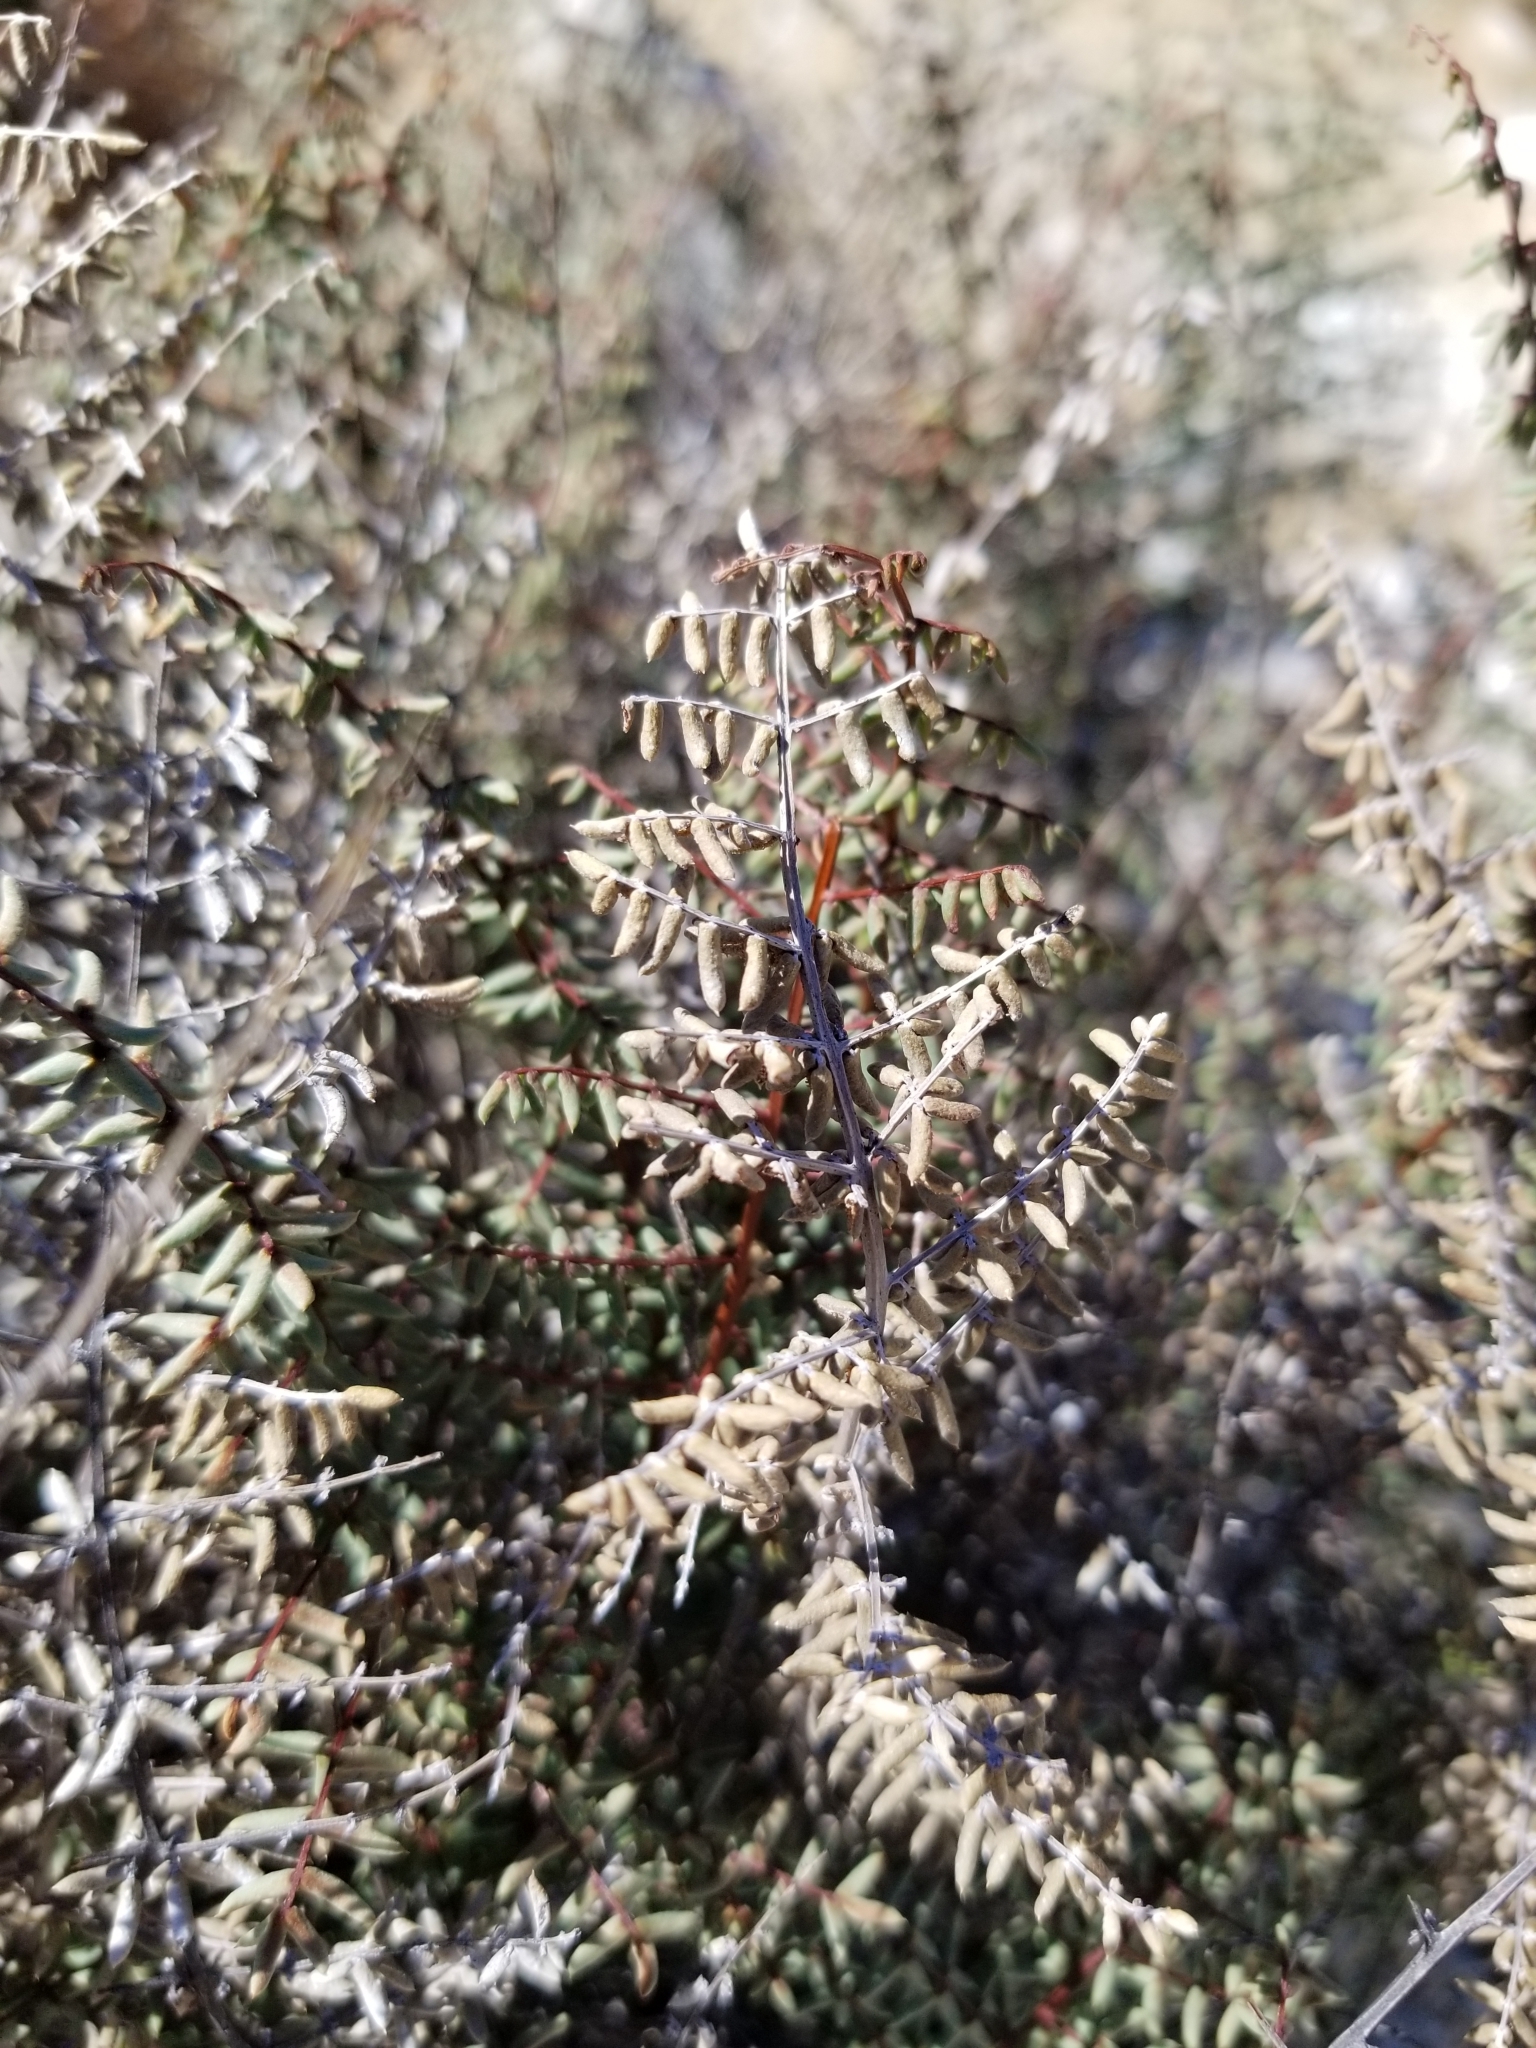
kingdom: Plantae
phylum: Tracheophyta
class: Polypodiopsida
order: Polypodiales
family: Pteridaceae
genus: Pellaea
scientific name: Pellaea mucronata
